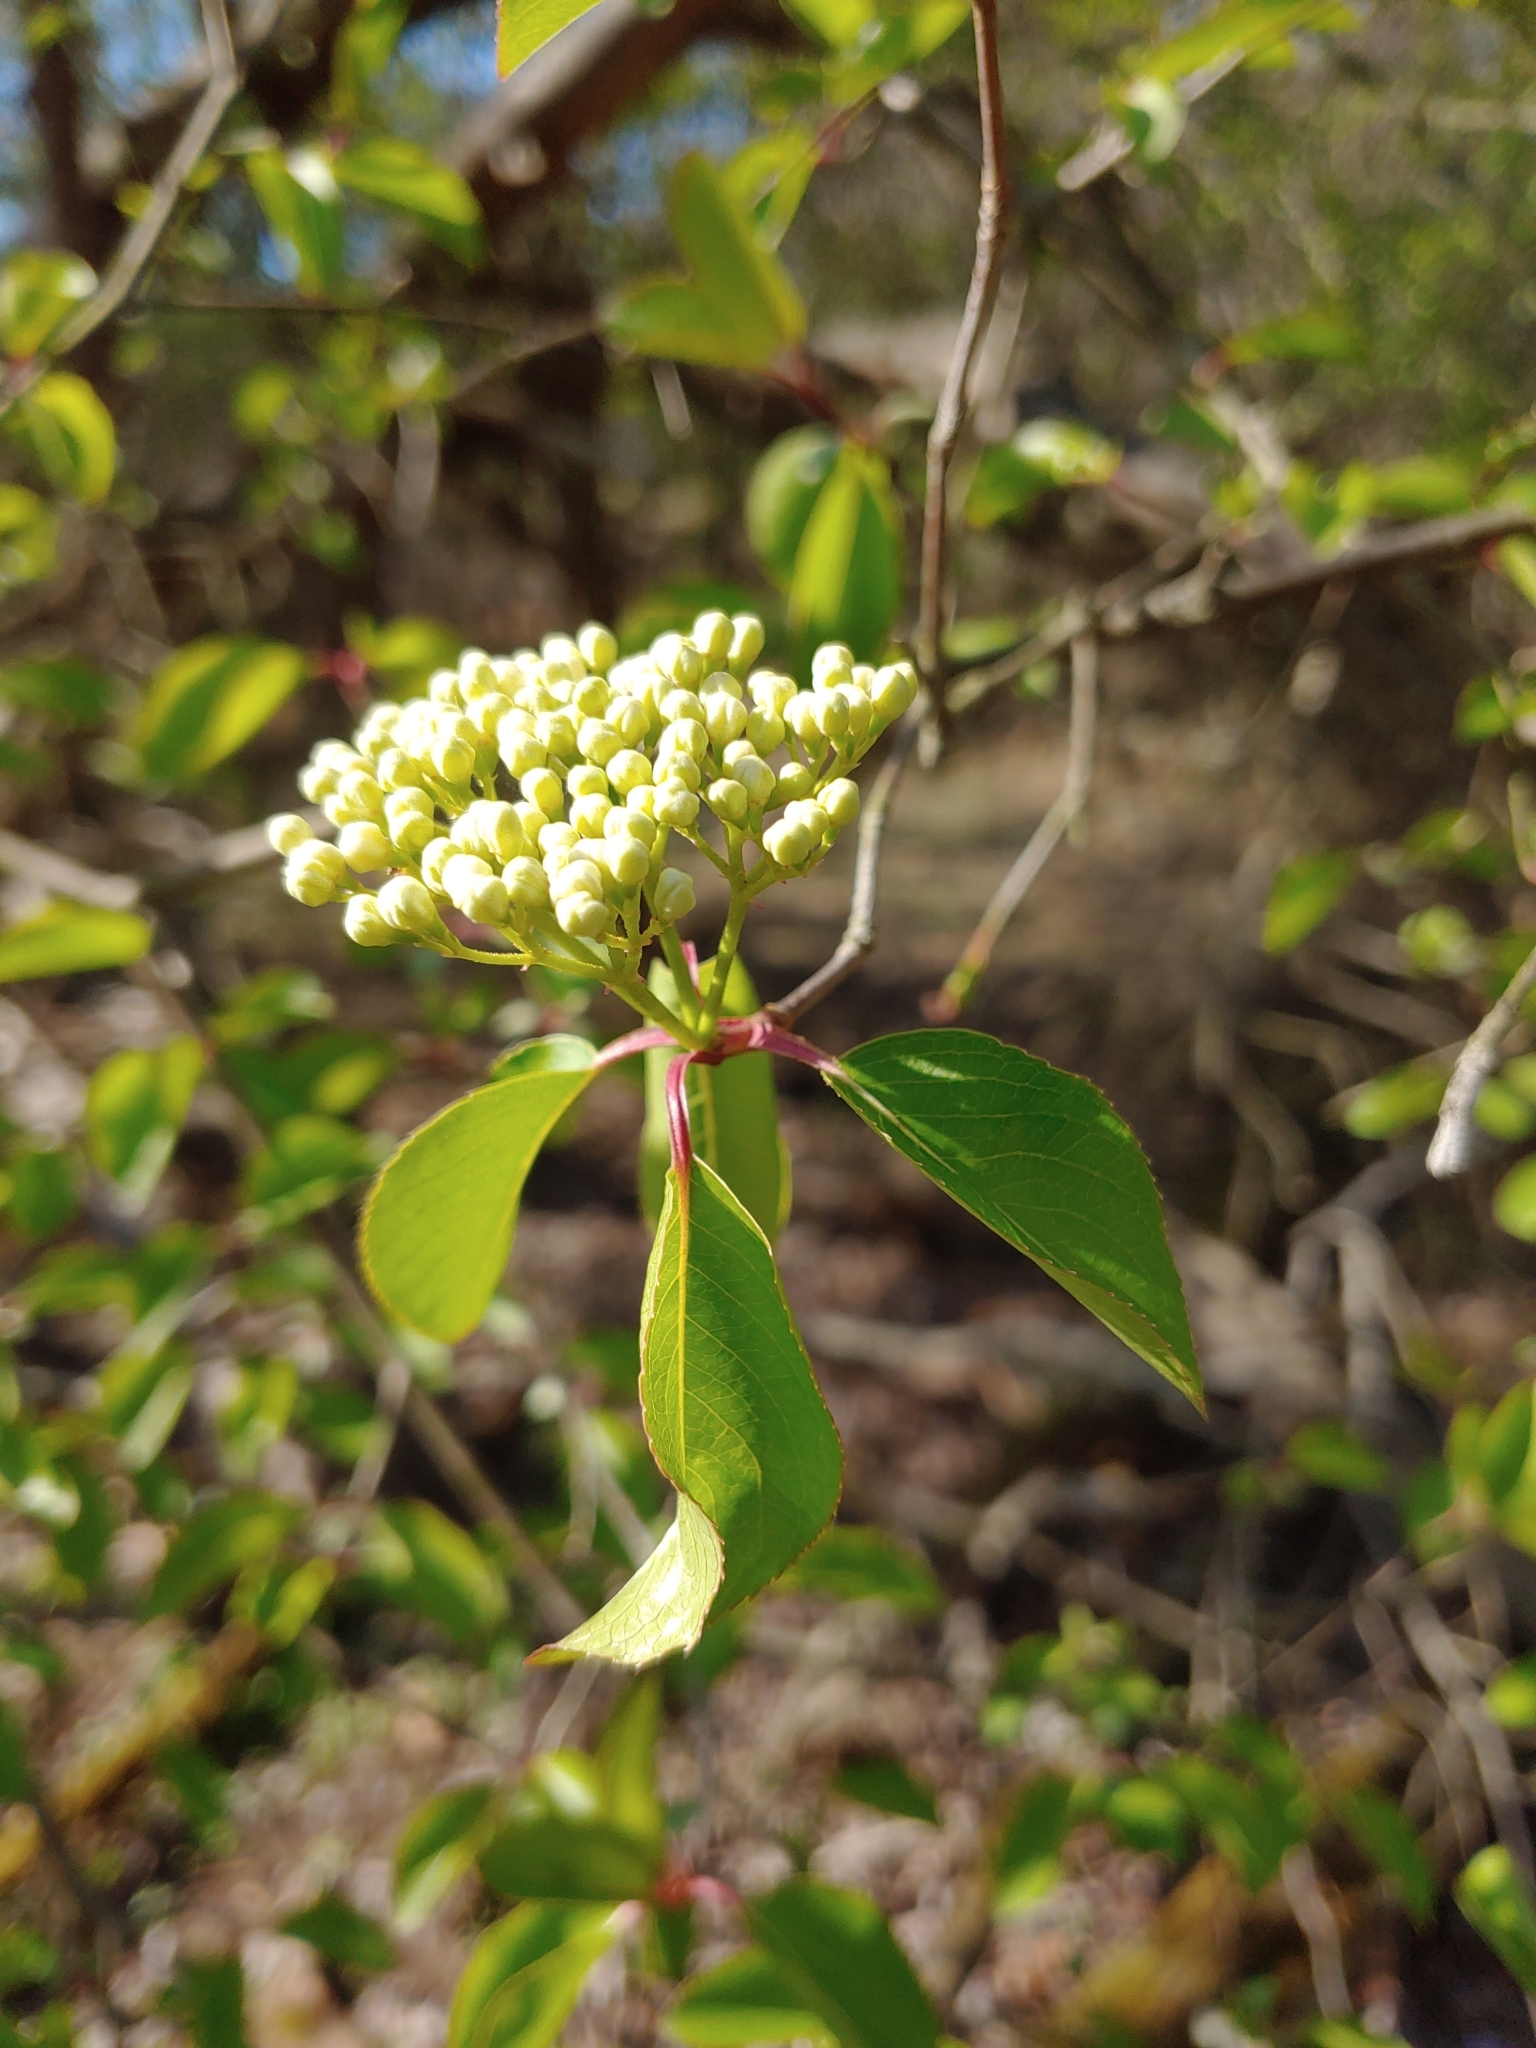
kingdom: Plantae
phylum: Tracheophyta
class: Magnoliopsida
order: Dipsacales
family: Viburnaceae
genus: Viburnum
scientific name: Viburnum prunifolium
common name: Black haw
